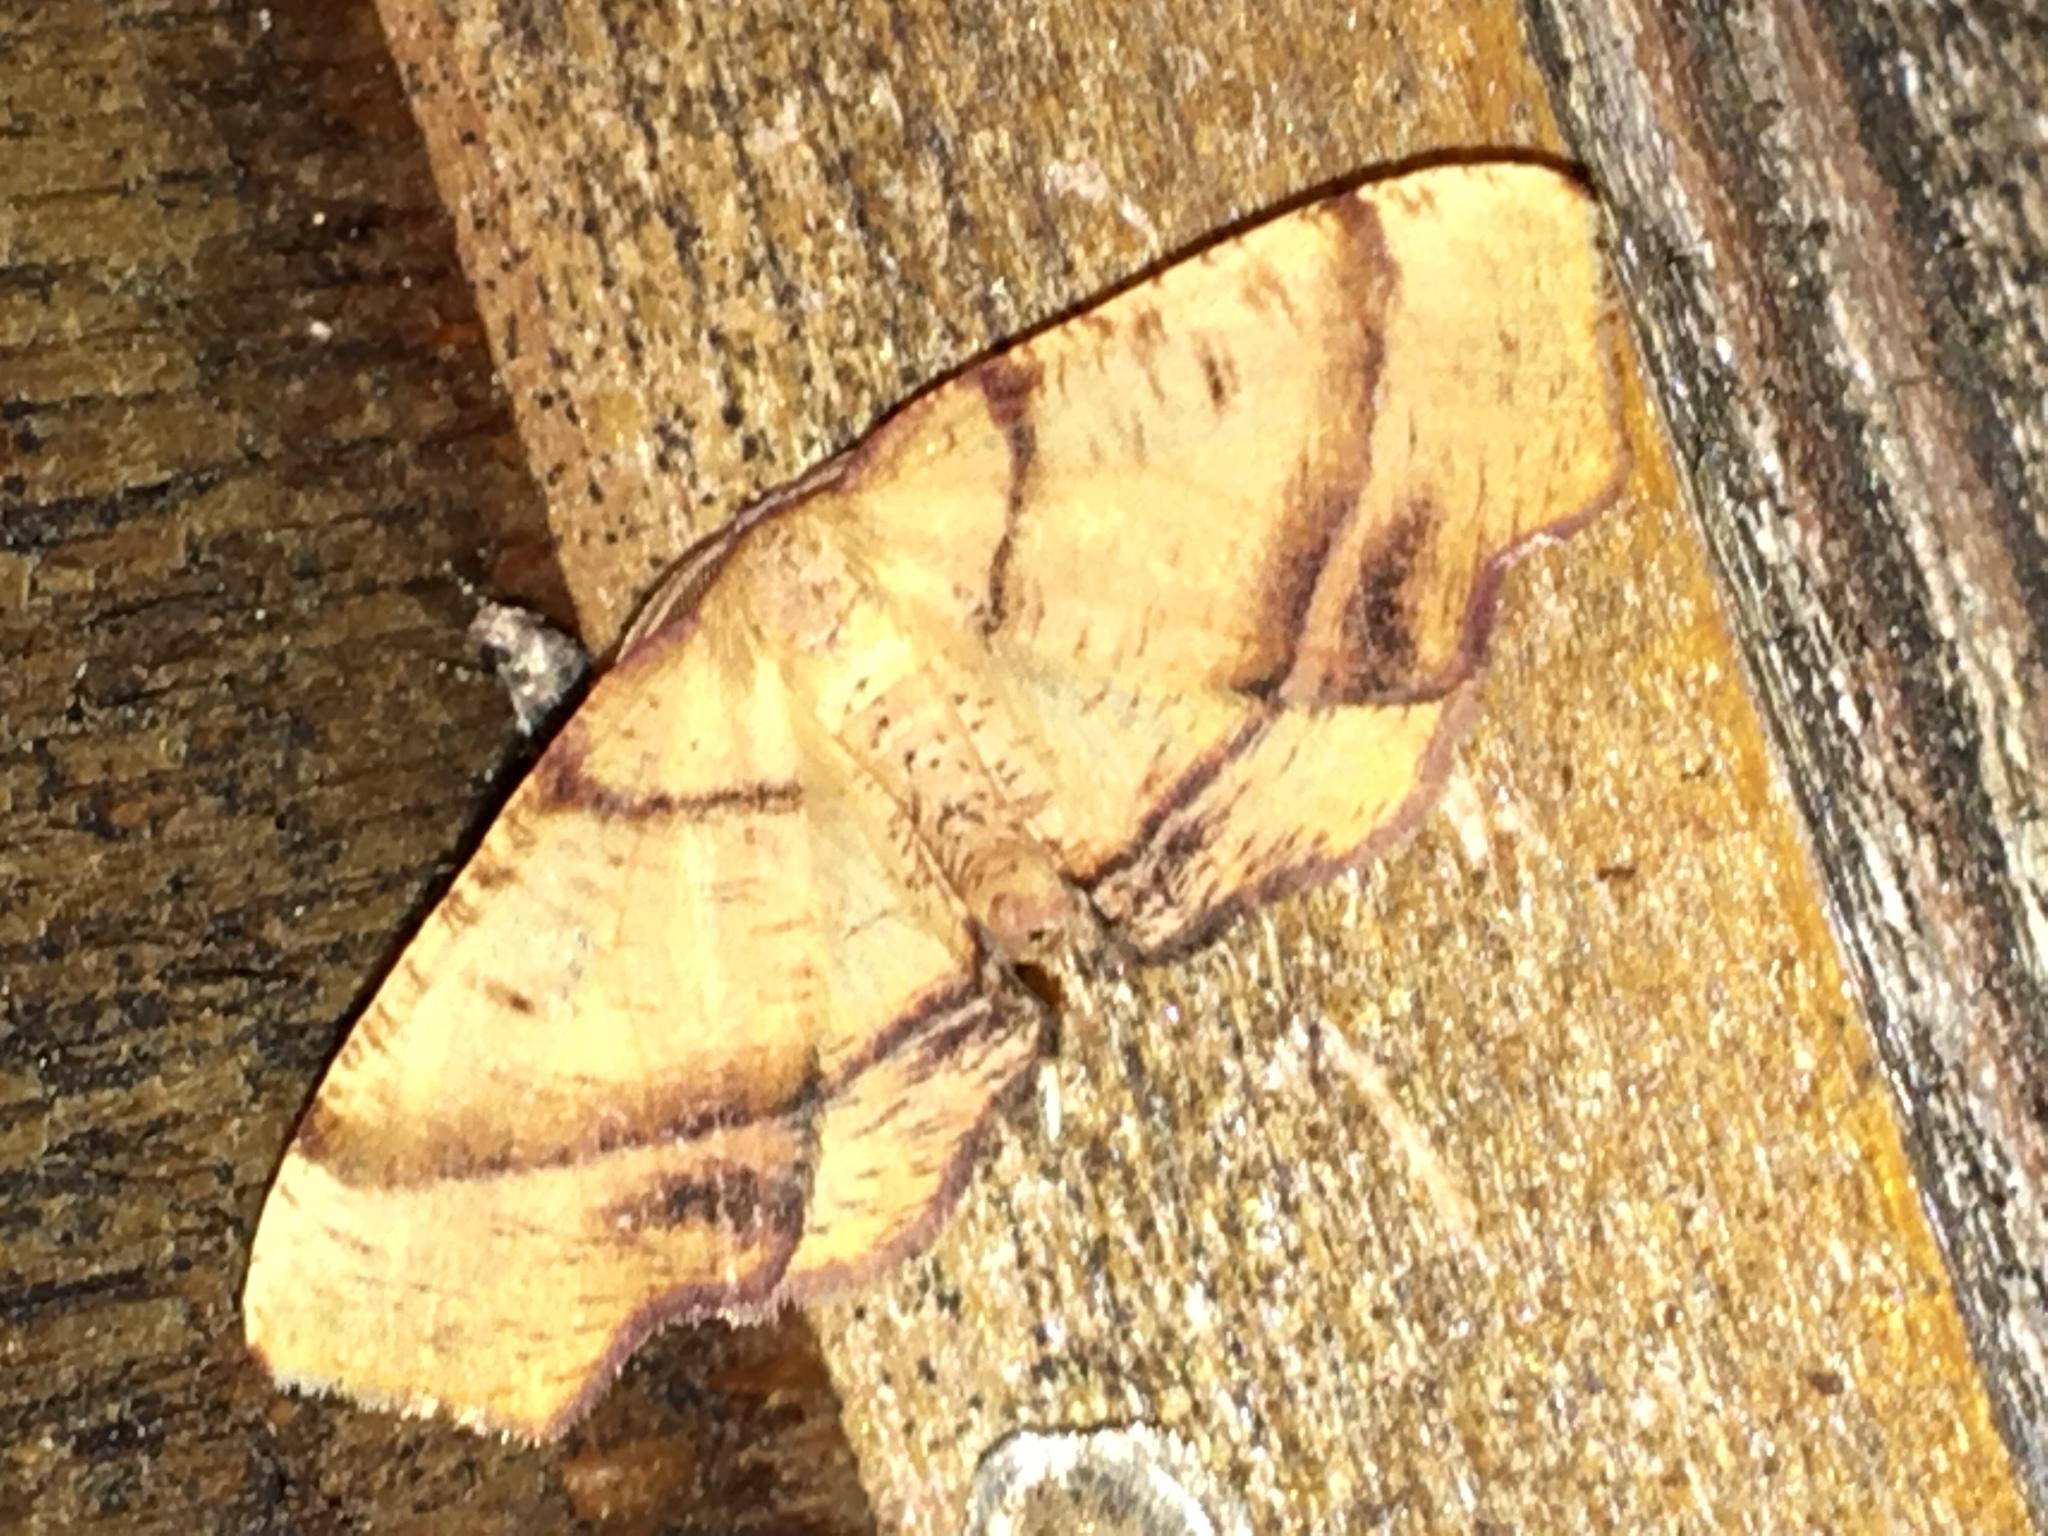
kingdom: Animalia
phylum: Arthropoda
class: Insecta
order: Lepidoptera
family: Geometridae
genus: Plagodis
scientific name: Plagodis phlogosaria
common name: Straight-lined plagodis
